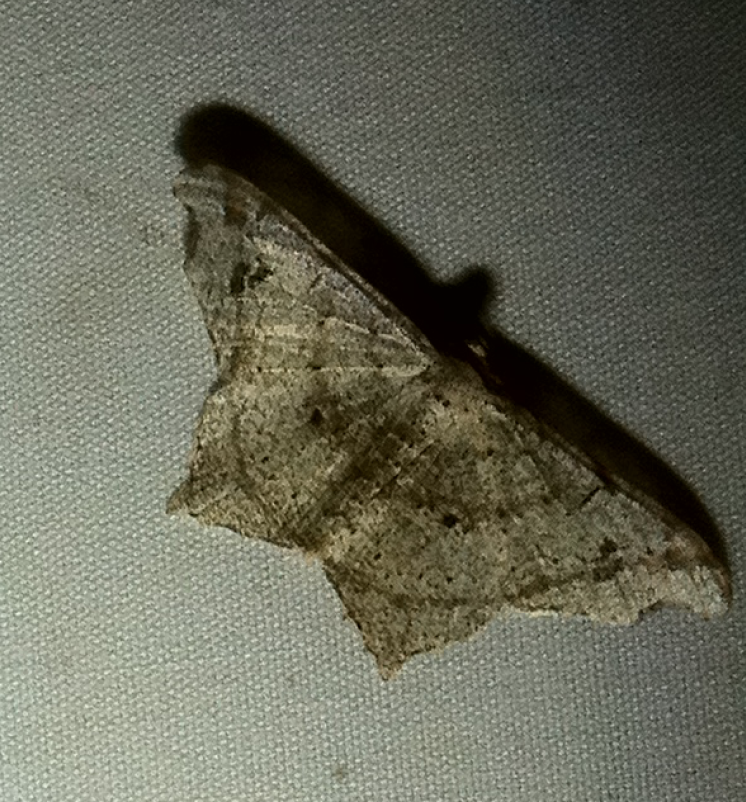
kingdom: Animalia
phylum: Arthropoda
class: Insecta
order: Lepidoptera
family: Geometridae
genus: Semiothisa
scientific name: Semiothisa gambaria
